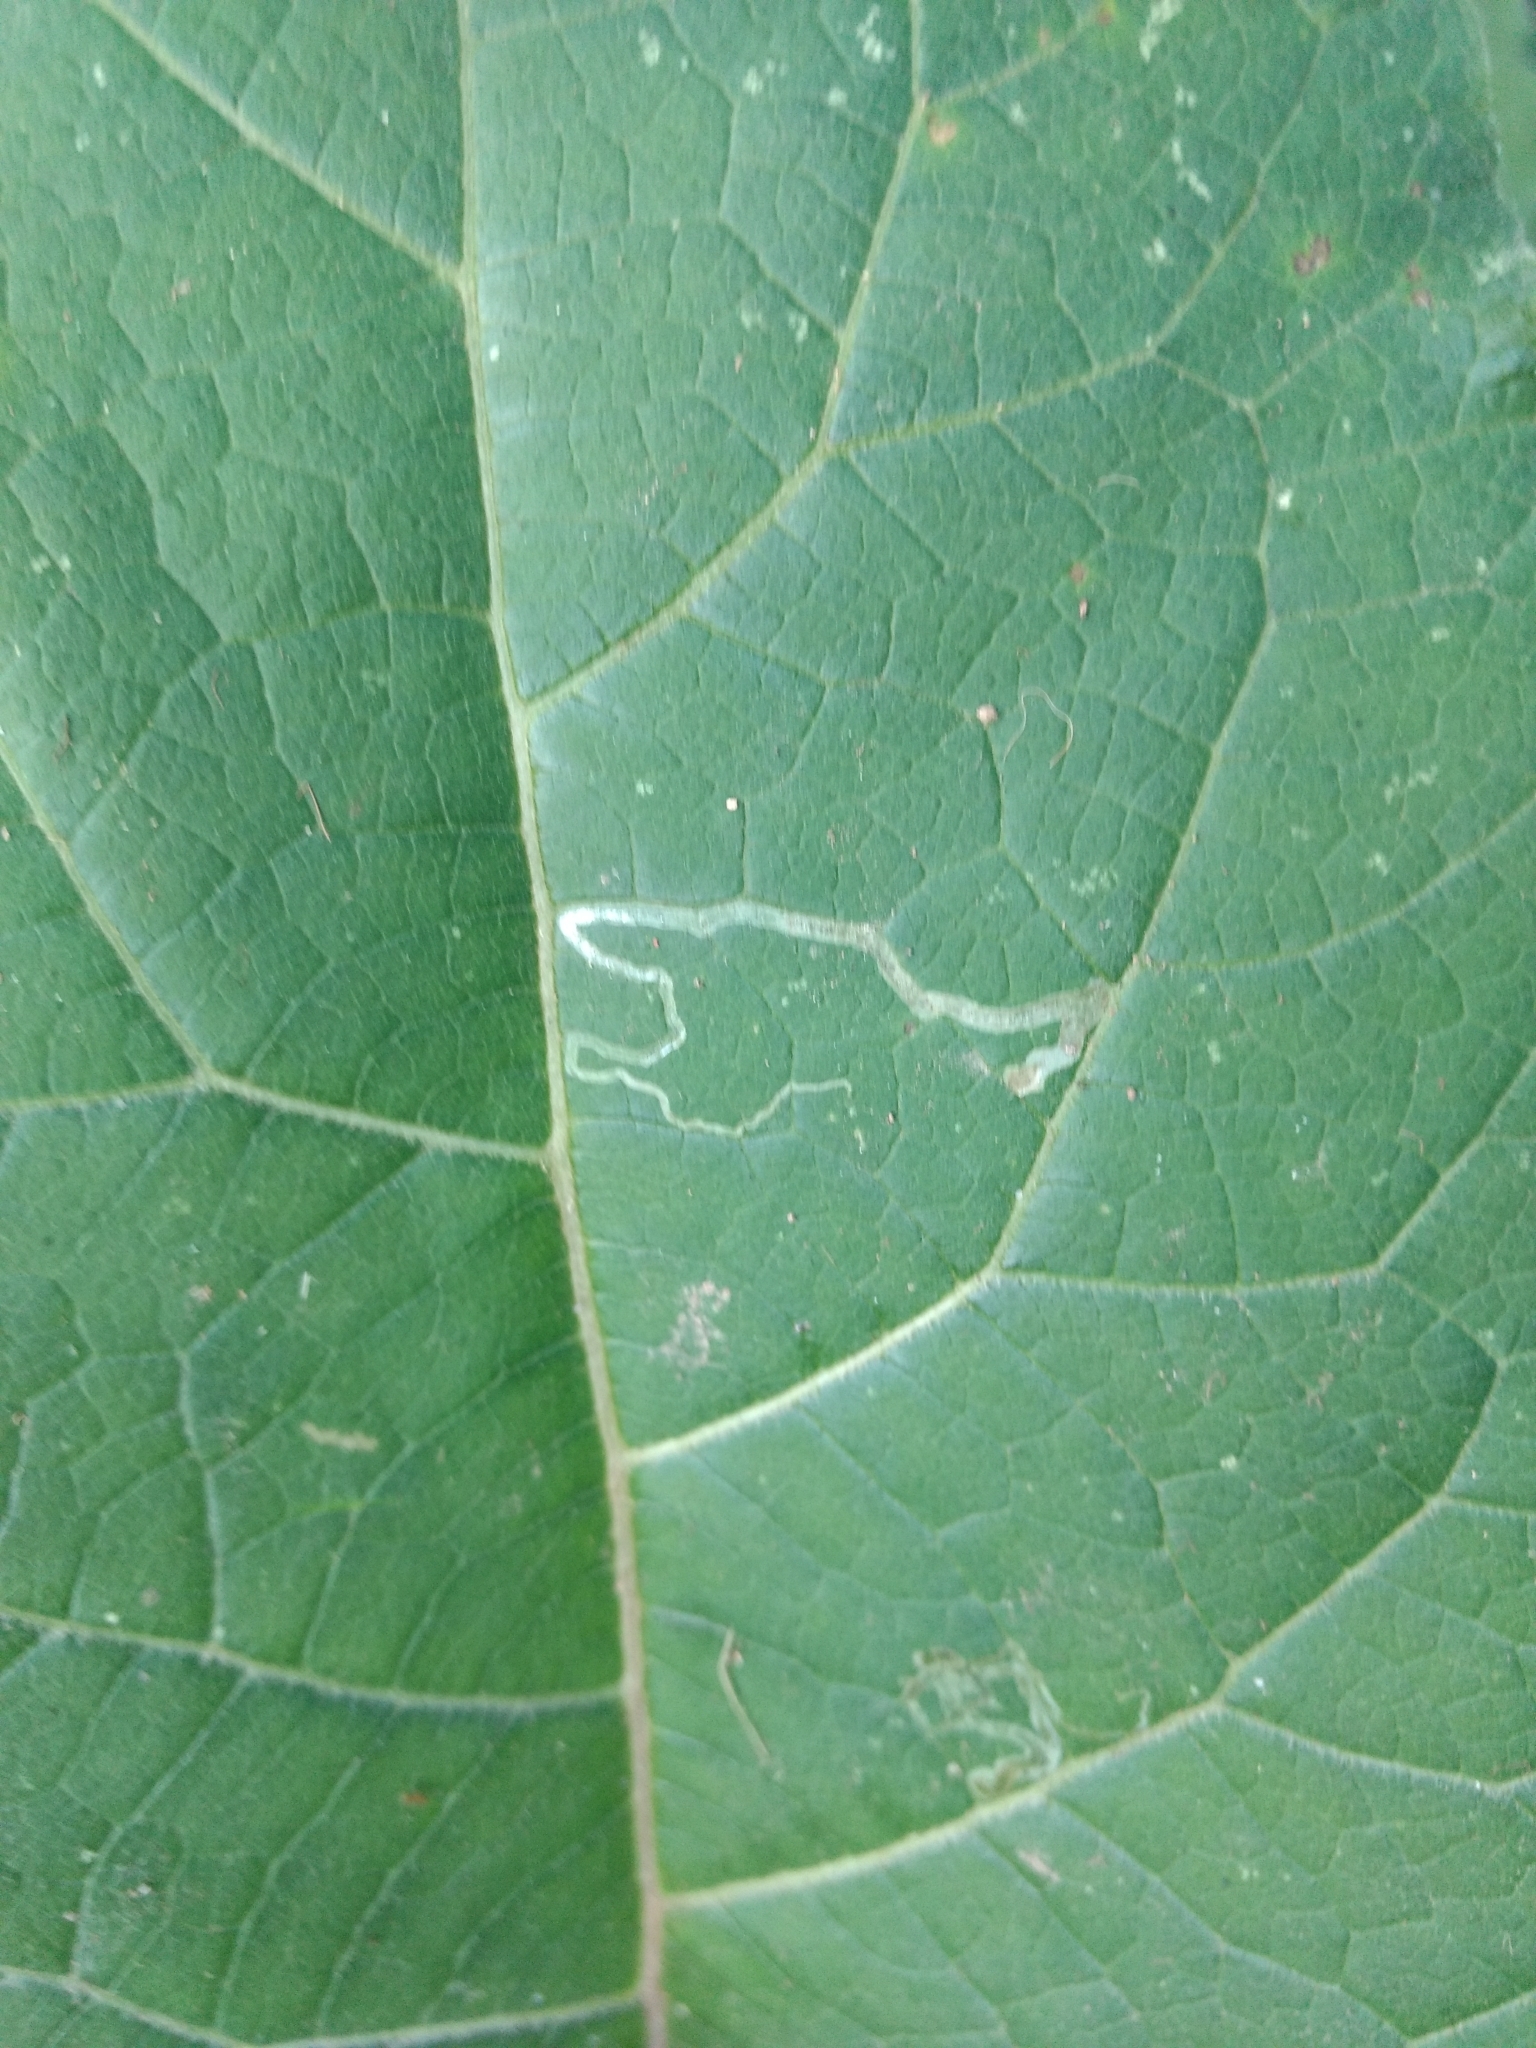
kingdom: Animalia
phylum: Arthropoda
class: Insecta
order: Diptera
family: Agromyzidae
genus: Liriomyza
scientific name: Liriomyza arctii
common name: Burdock leafminer
